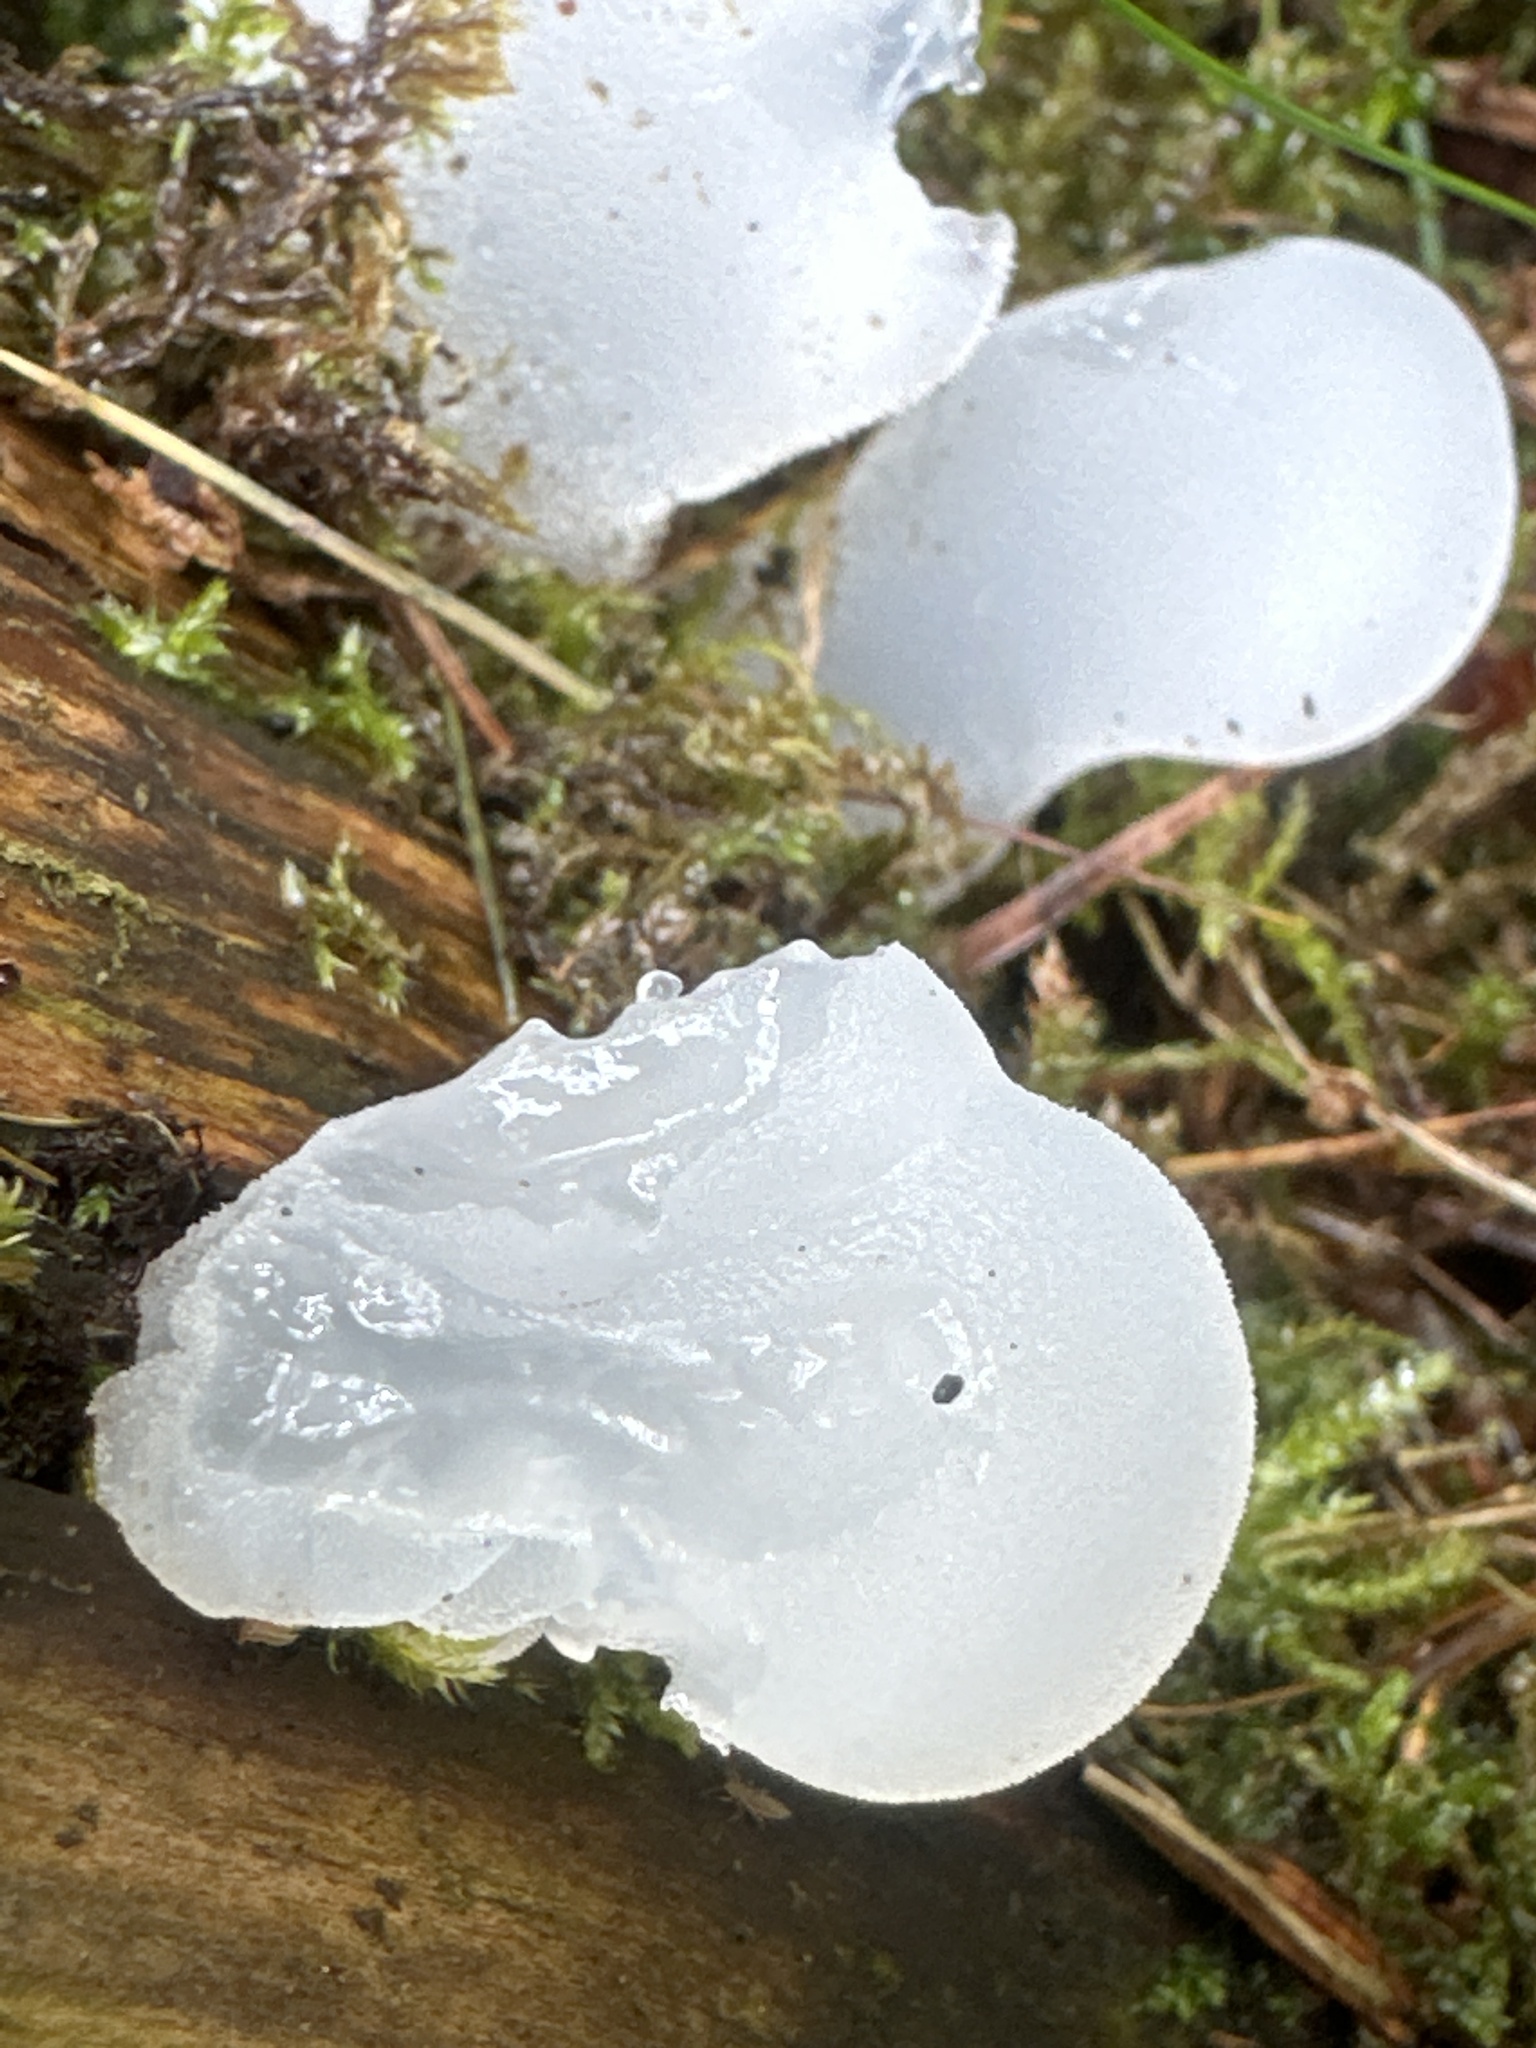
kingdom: Fungi
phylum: Basidiomycota
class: Agaricomycetes
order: Auriculariales
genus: Pseudohydnum
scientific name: Pseudohydnum gelatinosum
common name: Jelly tongue
